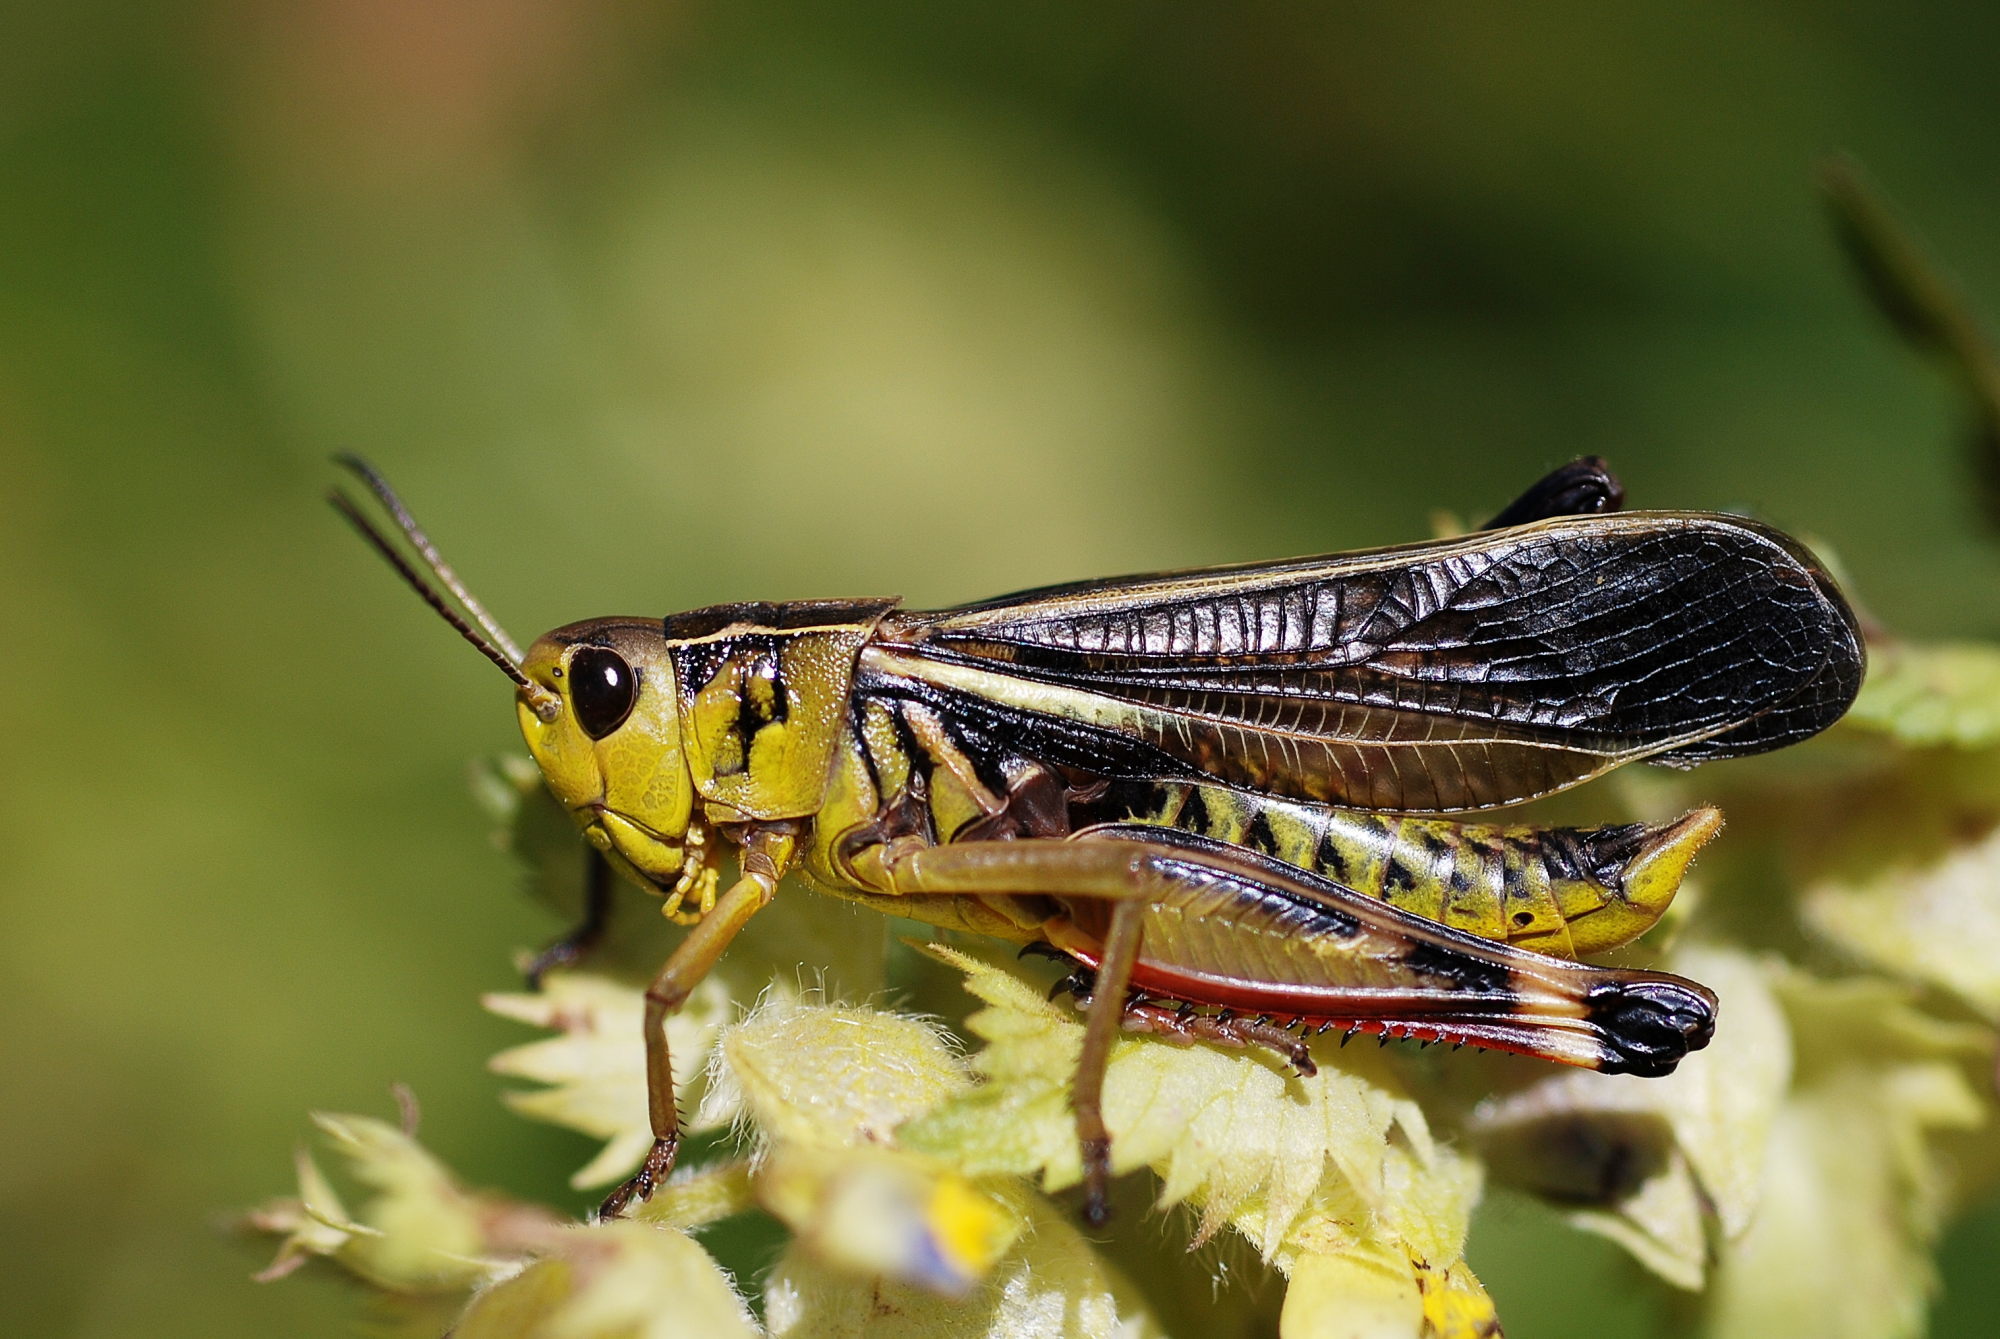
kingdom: Animalia
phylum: Arthropoda
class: Insecta
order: Orthoptera
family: Acrididae
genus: Arcyptera
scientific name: Arcyptera fusca
